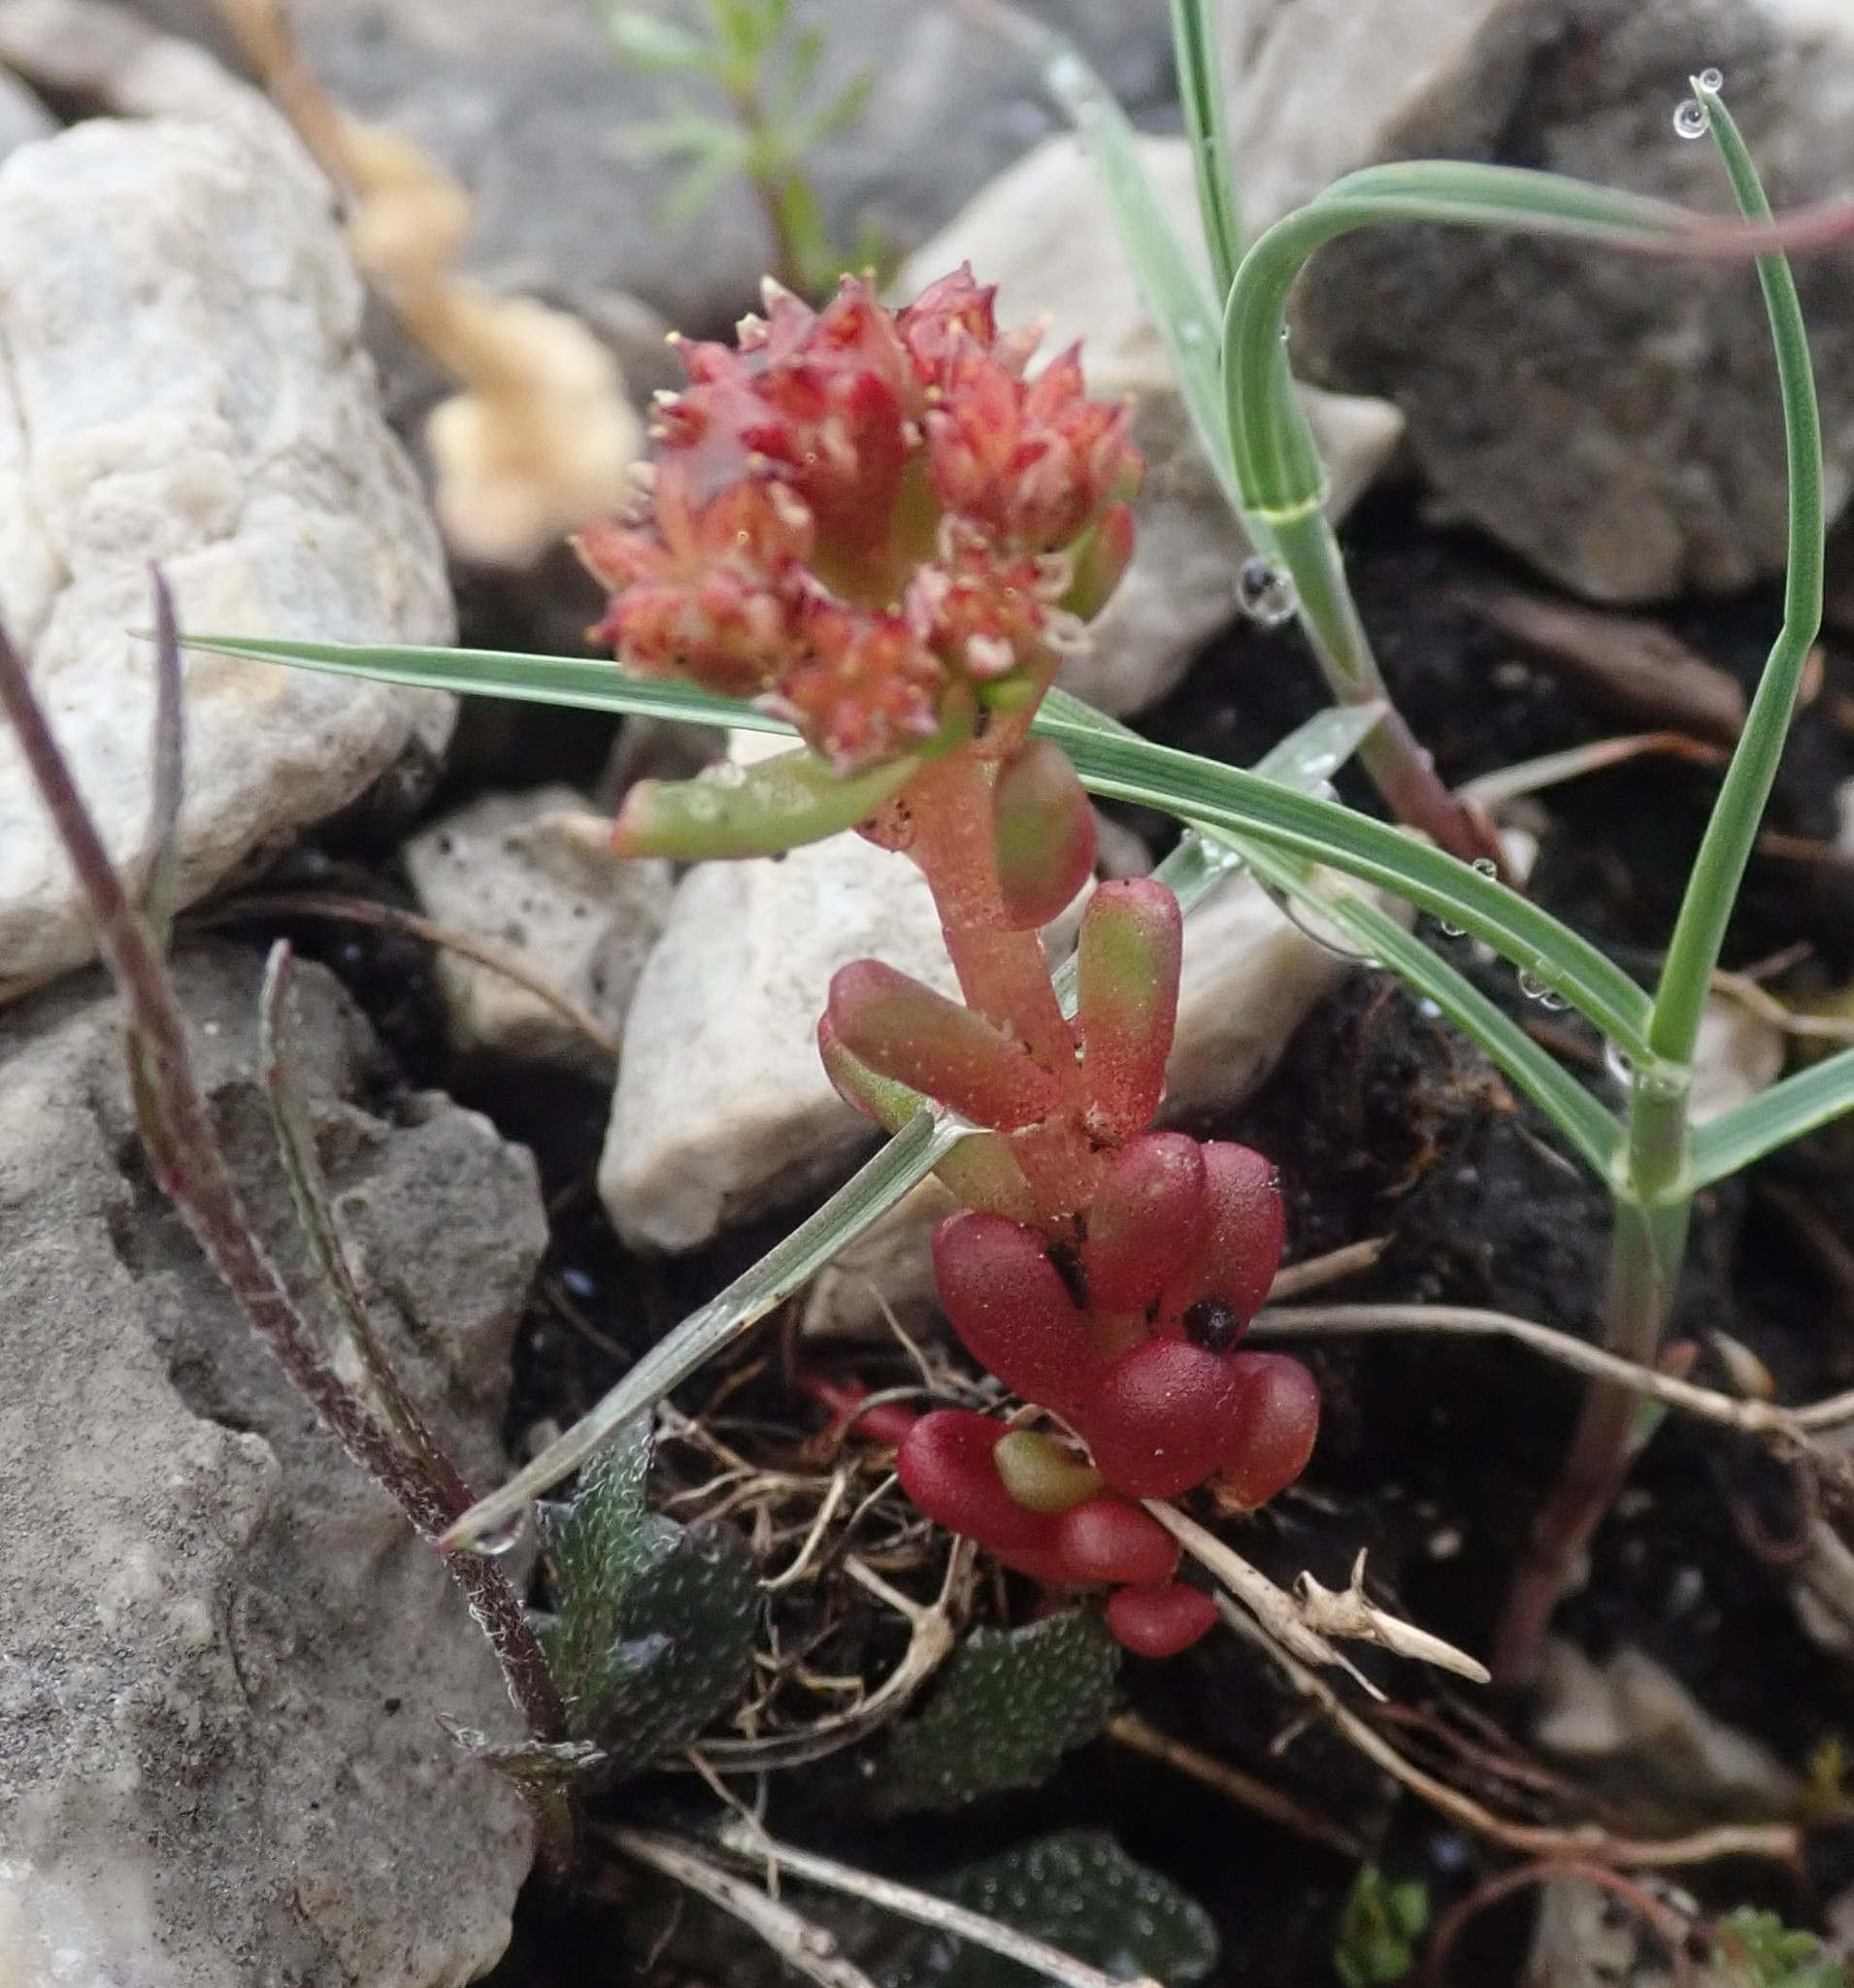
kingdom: Plantae
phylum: Tracheophyta
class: Magnoliopsida
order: Saxifragales
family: Crassulaceae
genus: Sedum
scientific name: Sedum atratum
